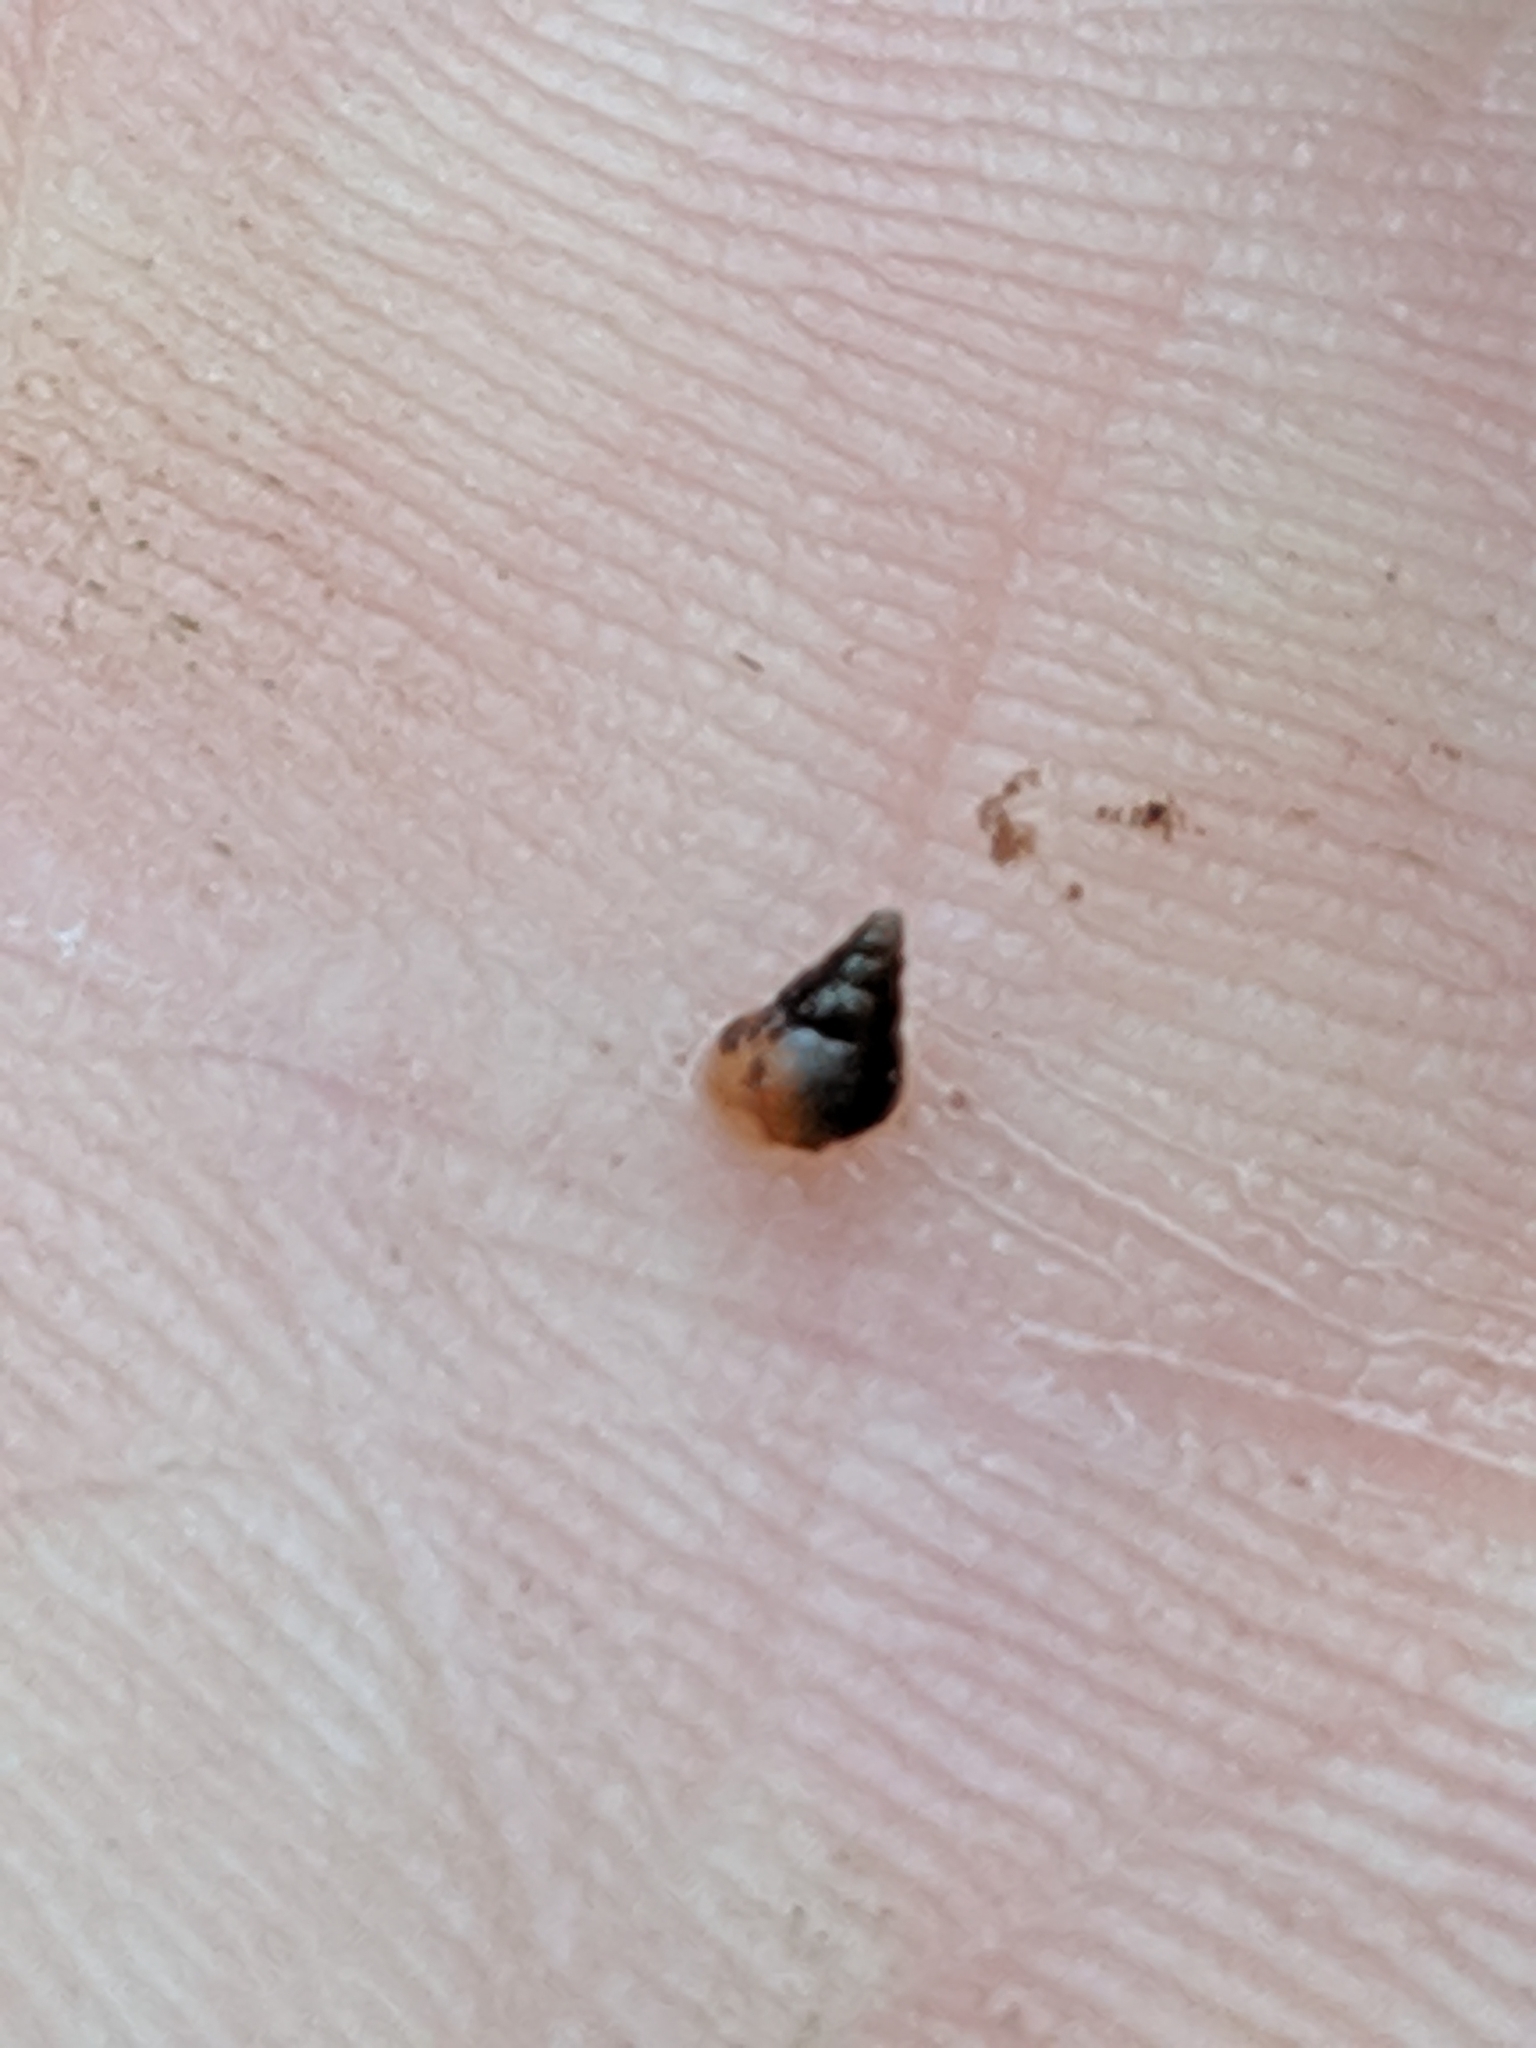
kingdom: Animalia
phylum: Mollusca
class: Gastropoda
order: Littorinimorpha
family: Tateidae
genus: Potamopyrgus
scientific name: Potamopyrgus antipodarum
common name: Jenkins' spire snail
